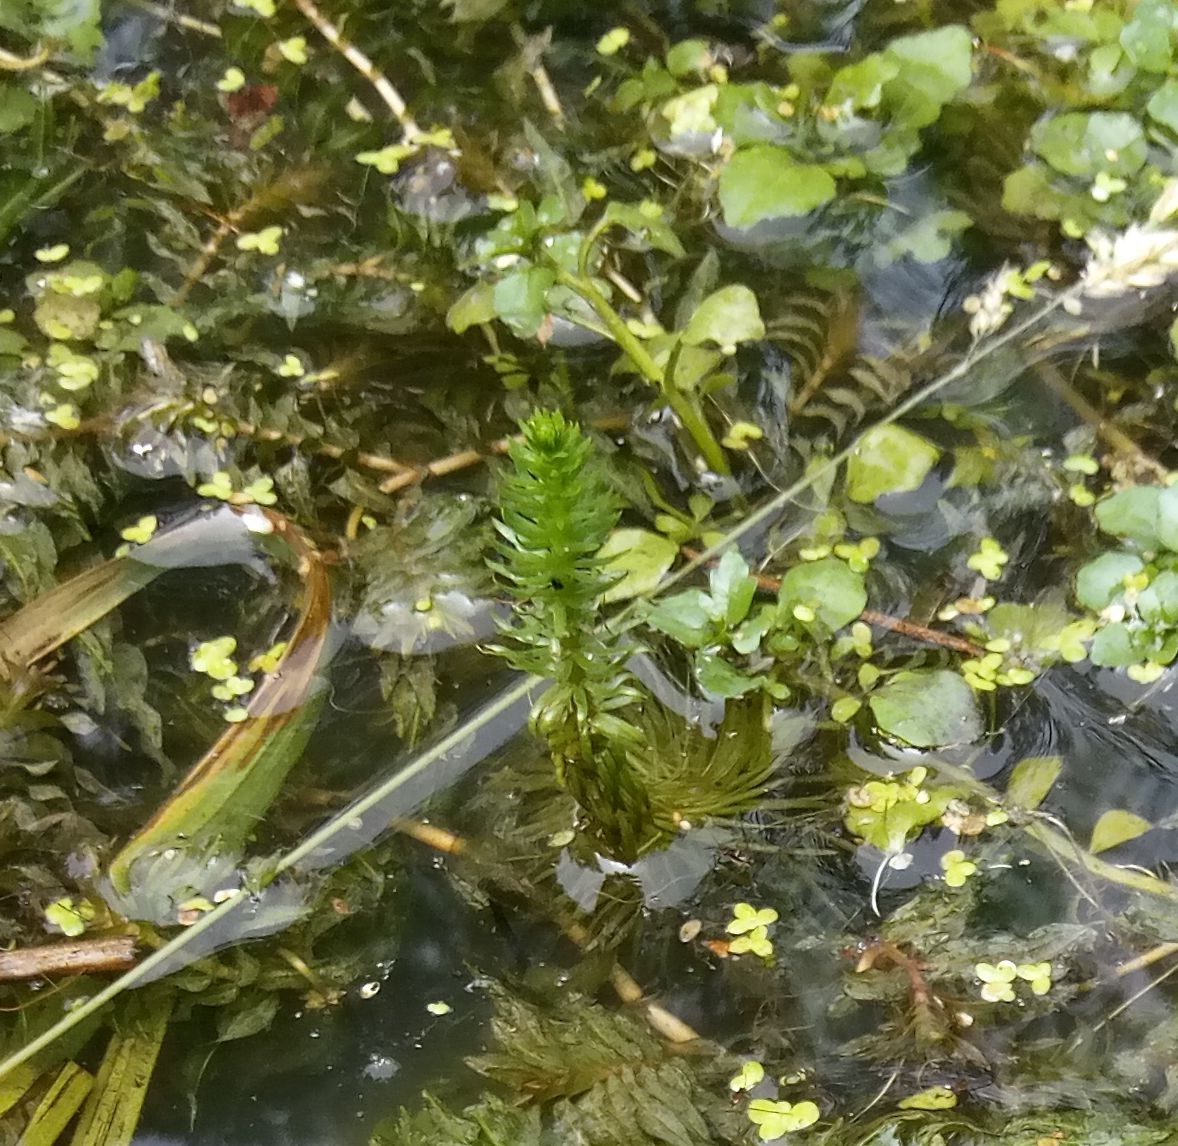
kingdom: Plantae
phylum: Tracheophyta
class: Magnoliopsida
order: Lamiales
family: Plantaginaceae
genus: Hippuris
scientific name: Hippuris vulgaris
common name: Mare's-tail
